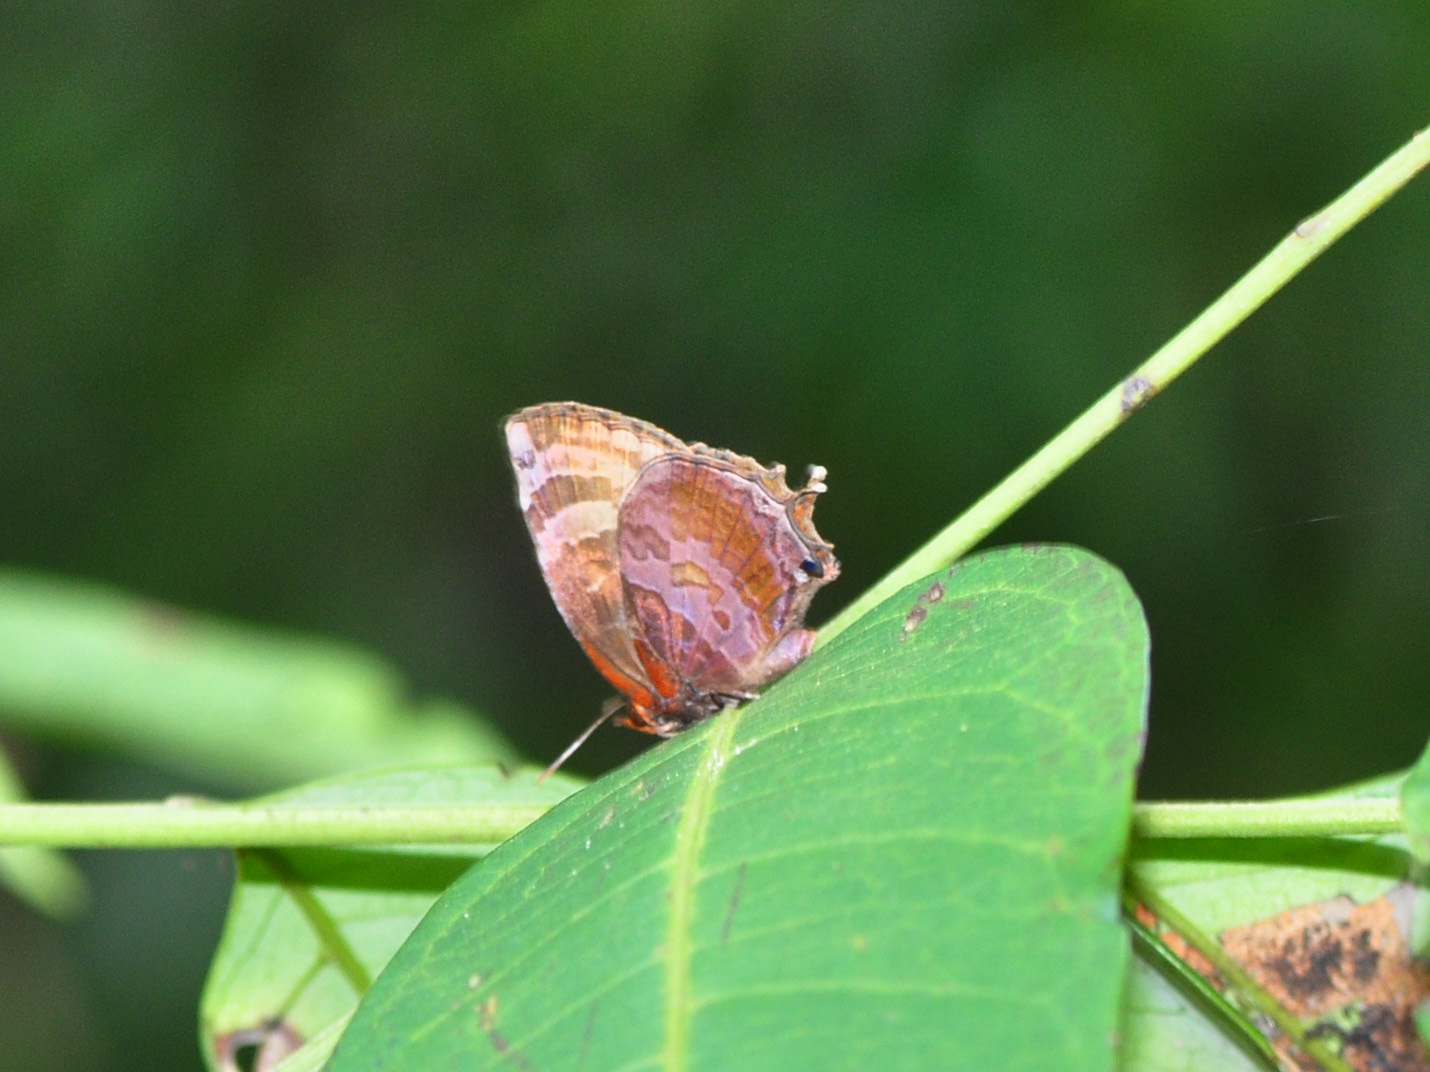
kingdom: Animalia
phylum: Arthropoda
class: Insecta
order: Lepidoptera
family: Lycaenidae
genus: Flos
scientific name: Flos apidanus
